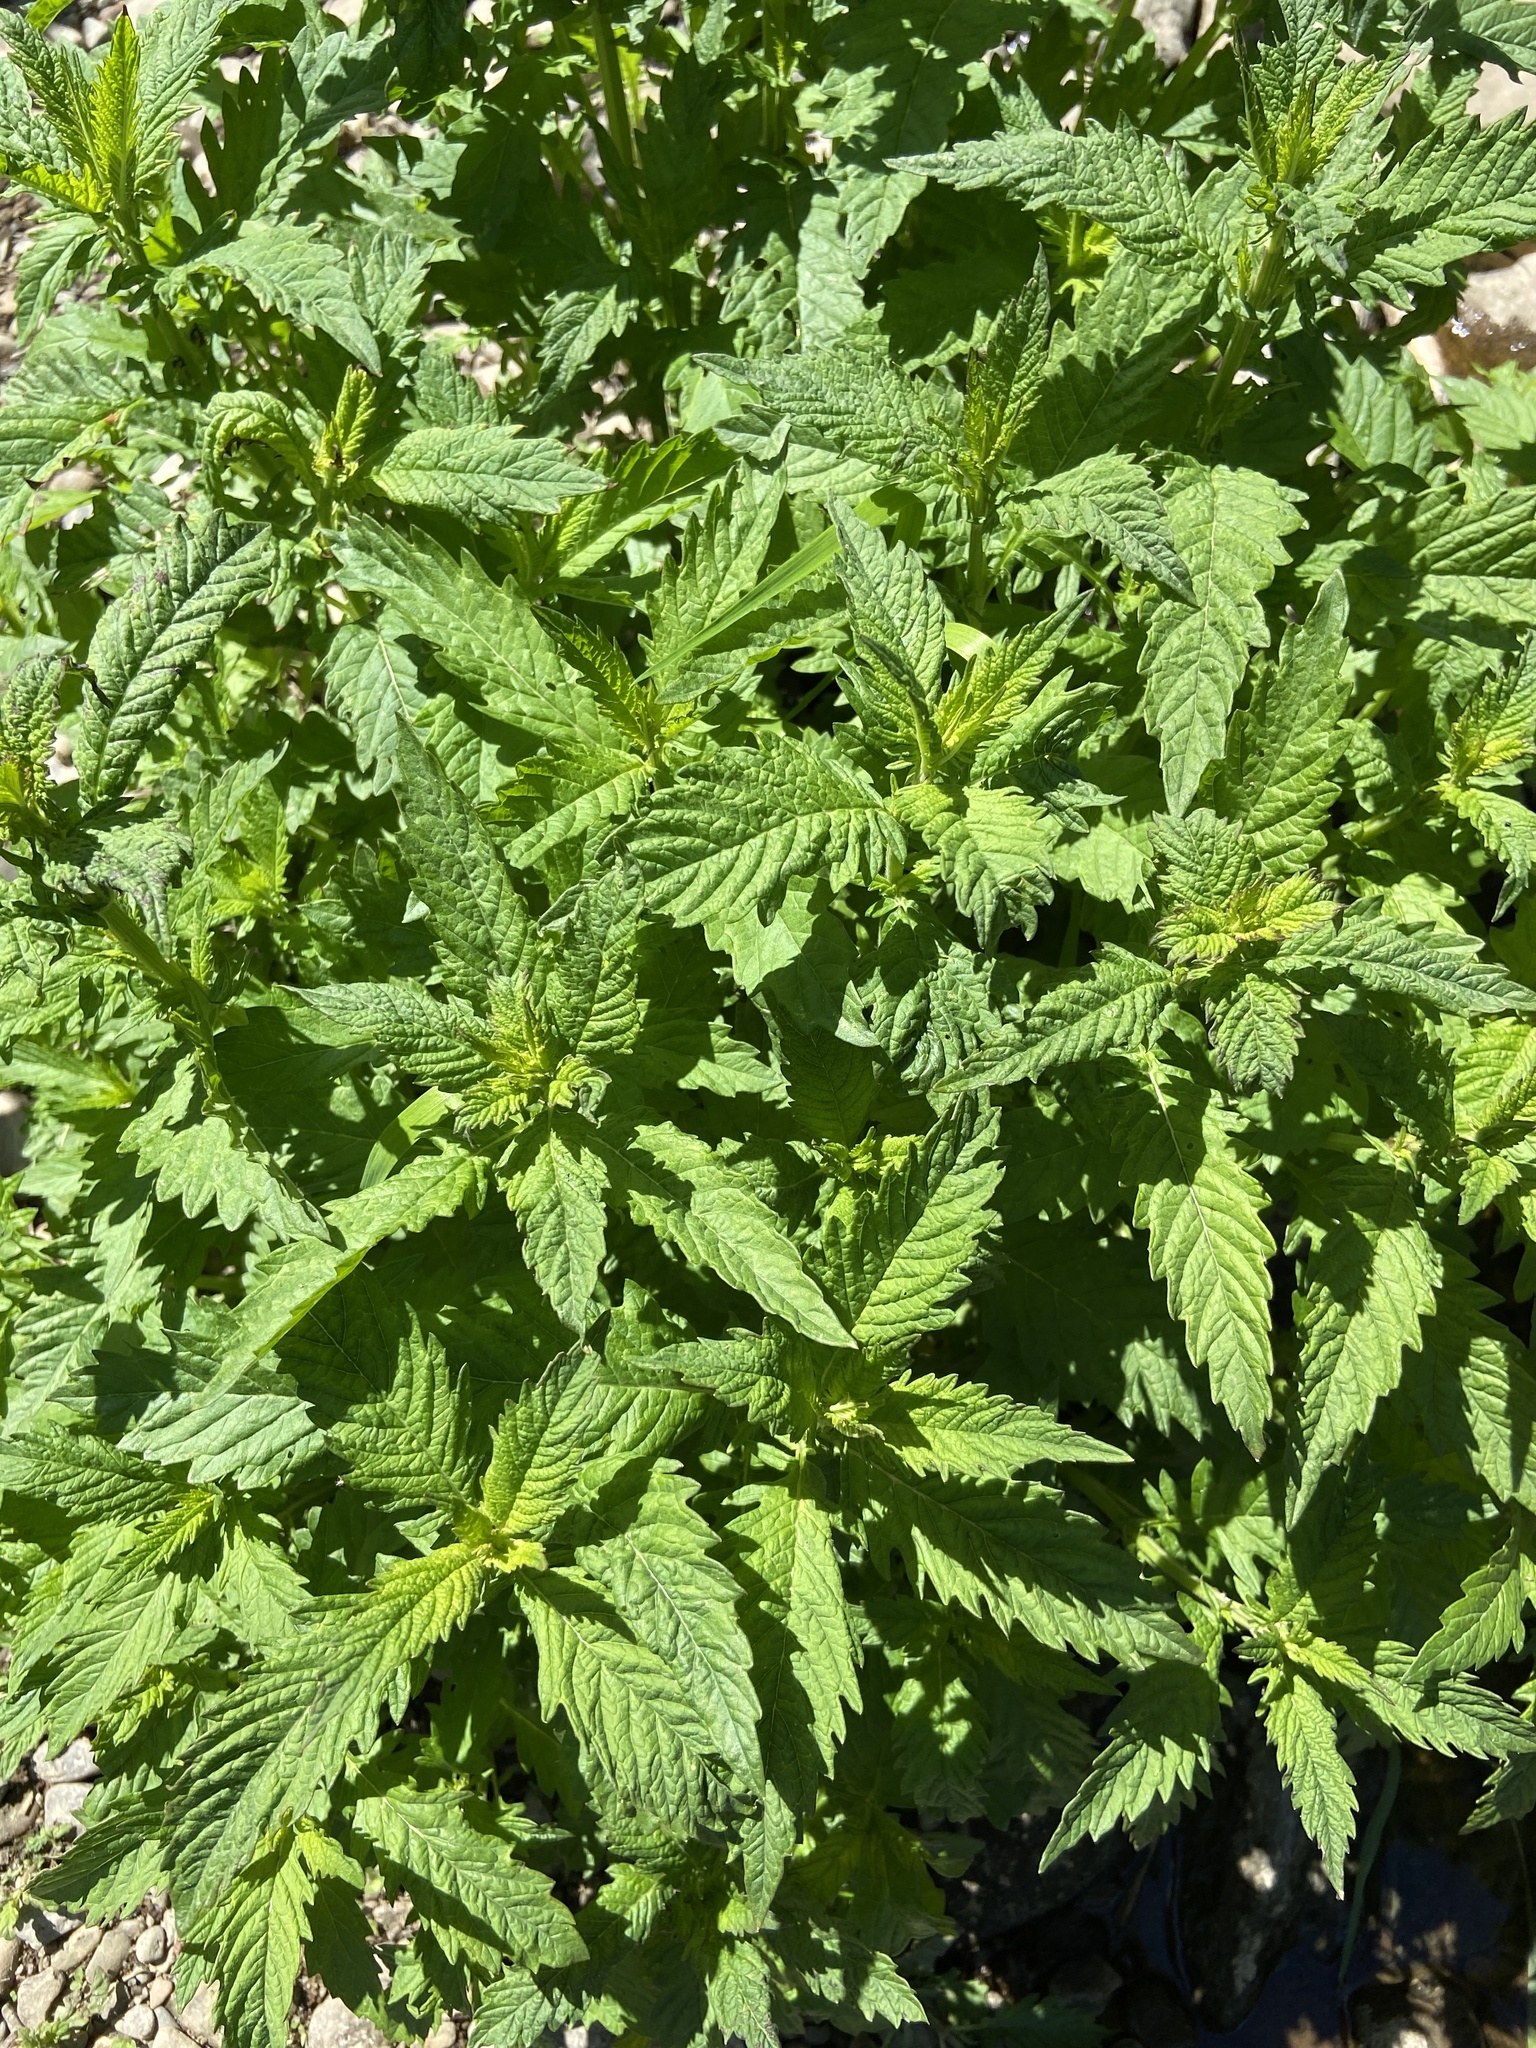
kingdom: Plantae
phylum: Tracheophyta
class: Magnoliopsida
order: Lamiales
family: Lamiaceae
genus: Lycopus
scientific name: Lycopus europaeus
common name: European bugleweed
